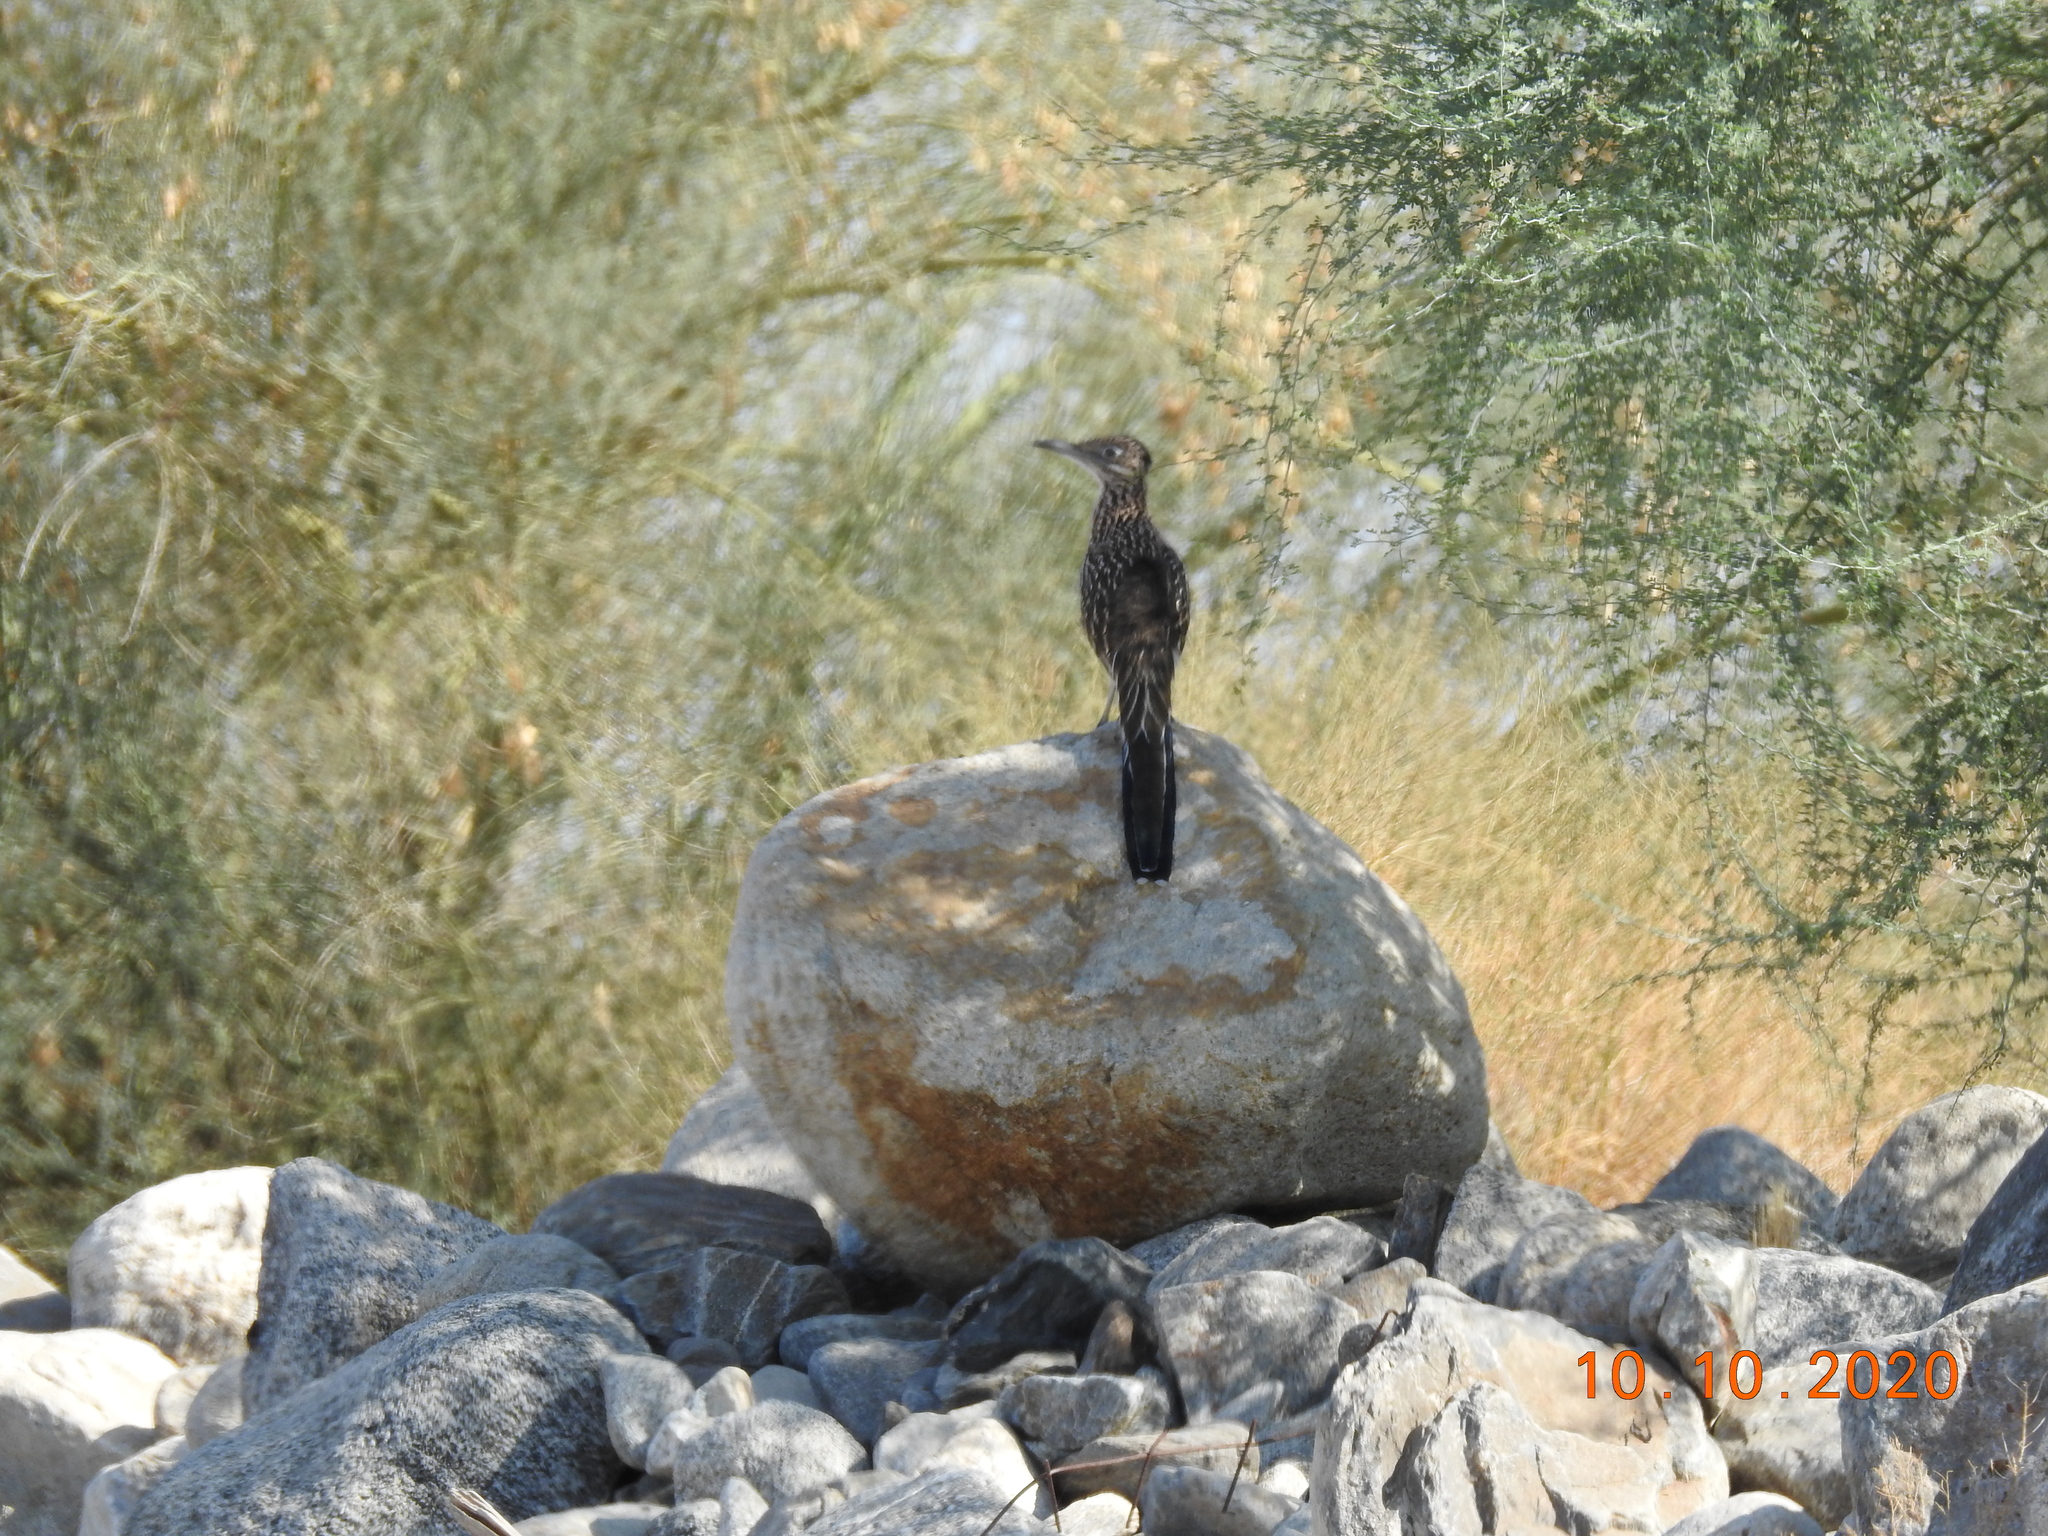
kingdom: Animalia
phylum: Chordata
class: Aves
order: Cuculiformes
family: Cuculidae
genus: Geococcyx
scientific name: Geococcyx californianus
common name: Greater roadrunner
